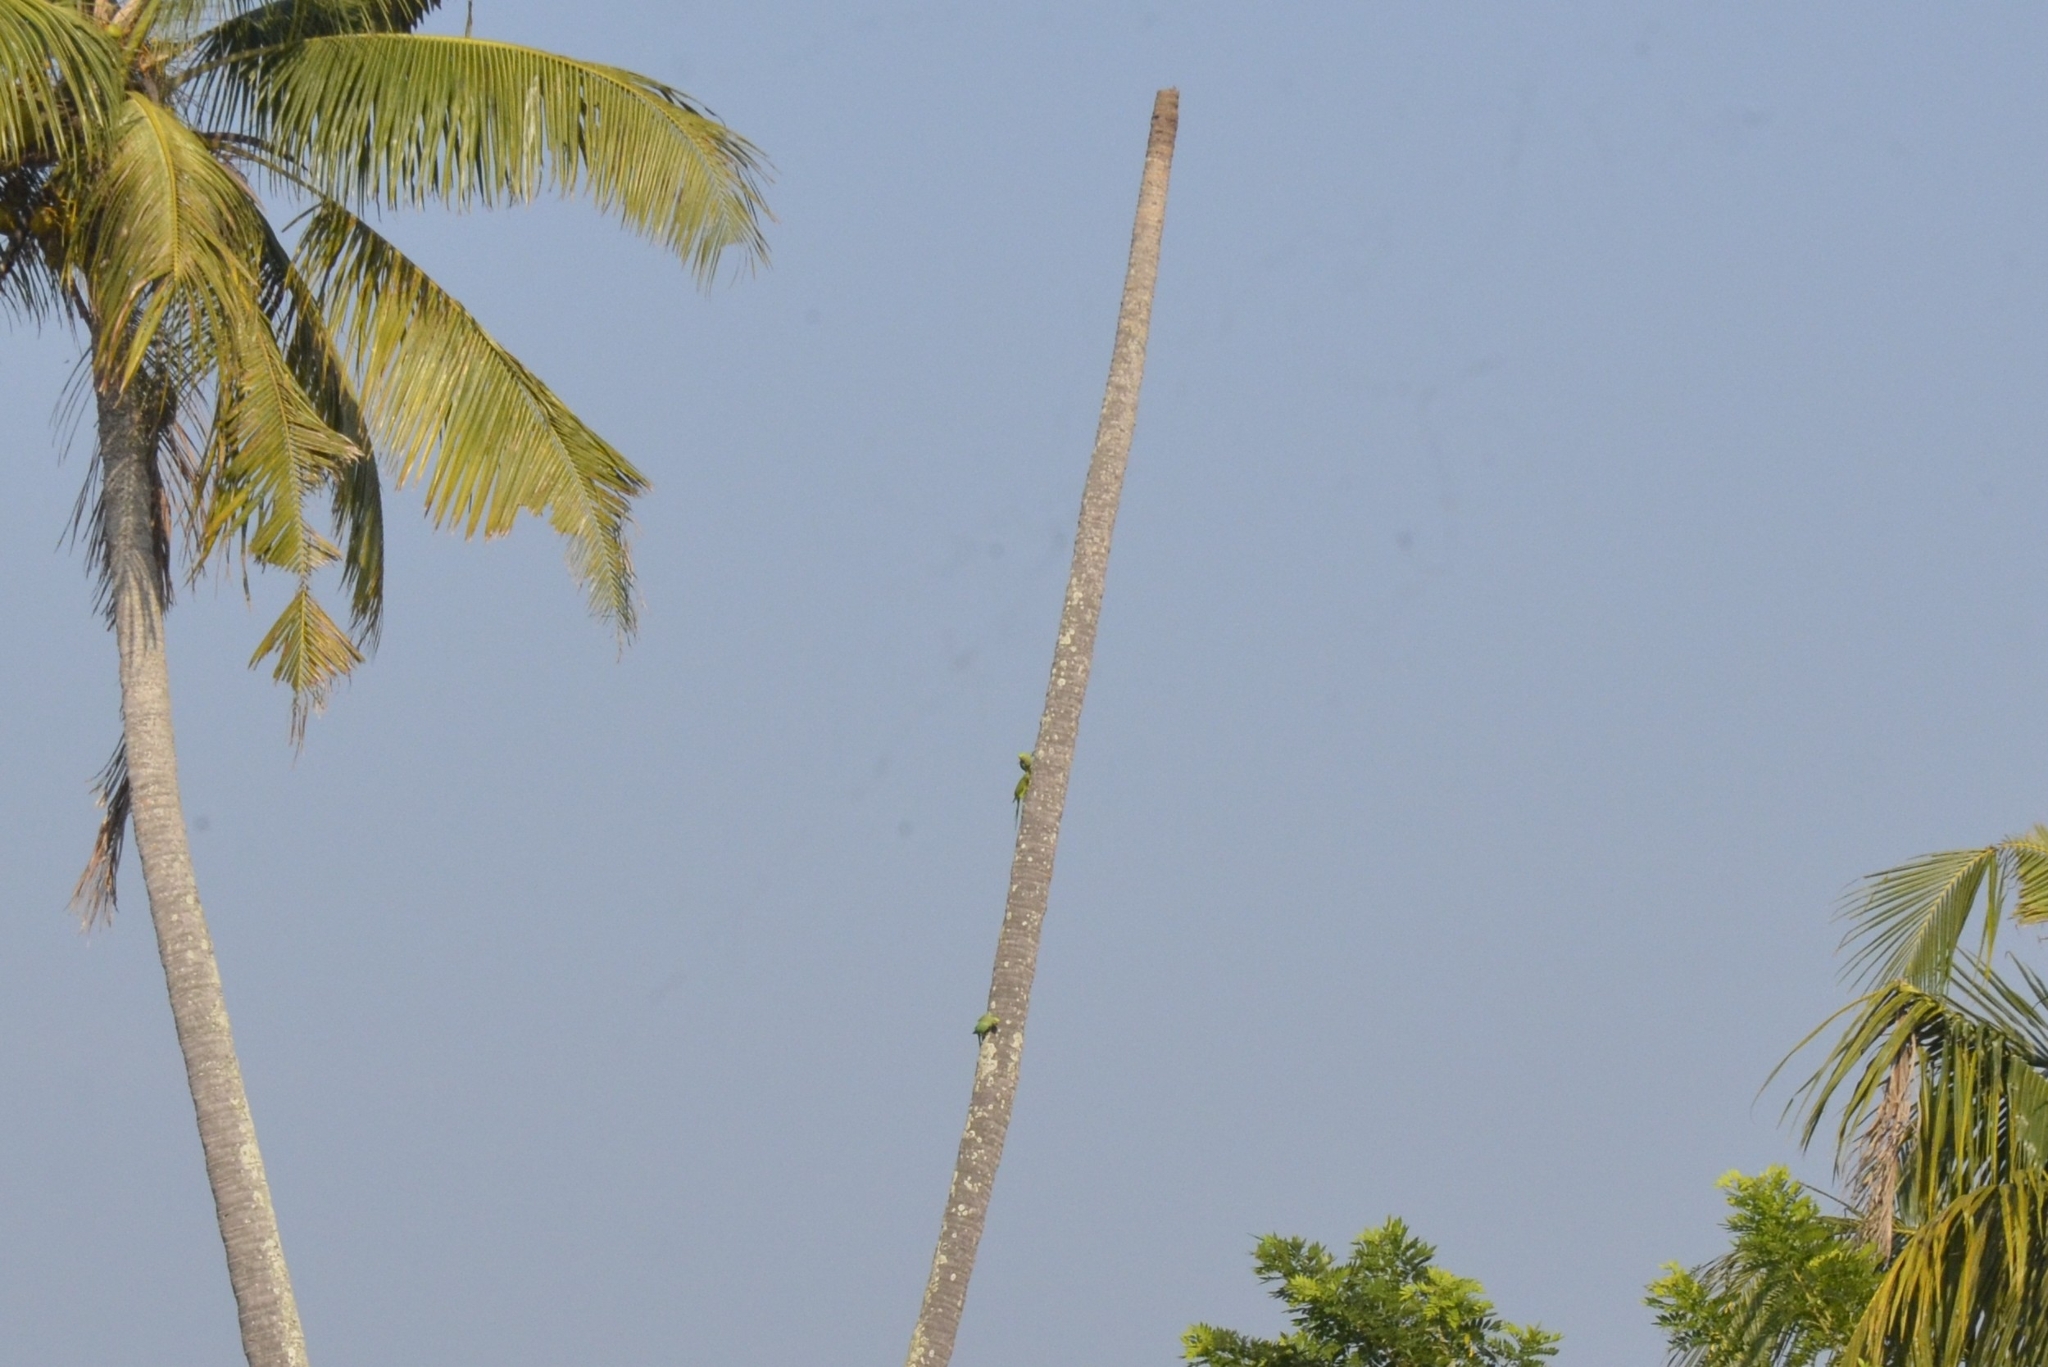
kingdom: Animalia
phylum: Chordata
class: Aves
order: Psittaciformes
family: Psittacidae
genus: Psittacula
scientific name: Psittacula krameri
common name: Rose-ringed parakeet
